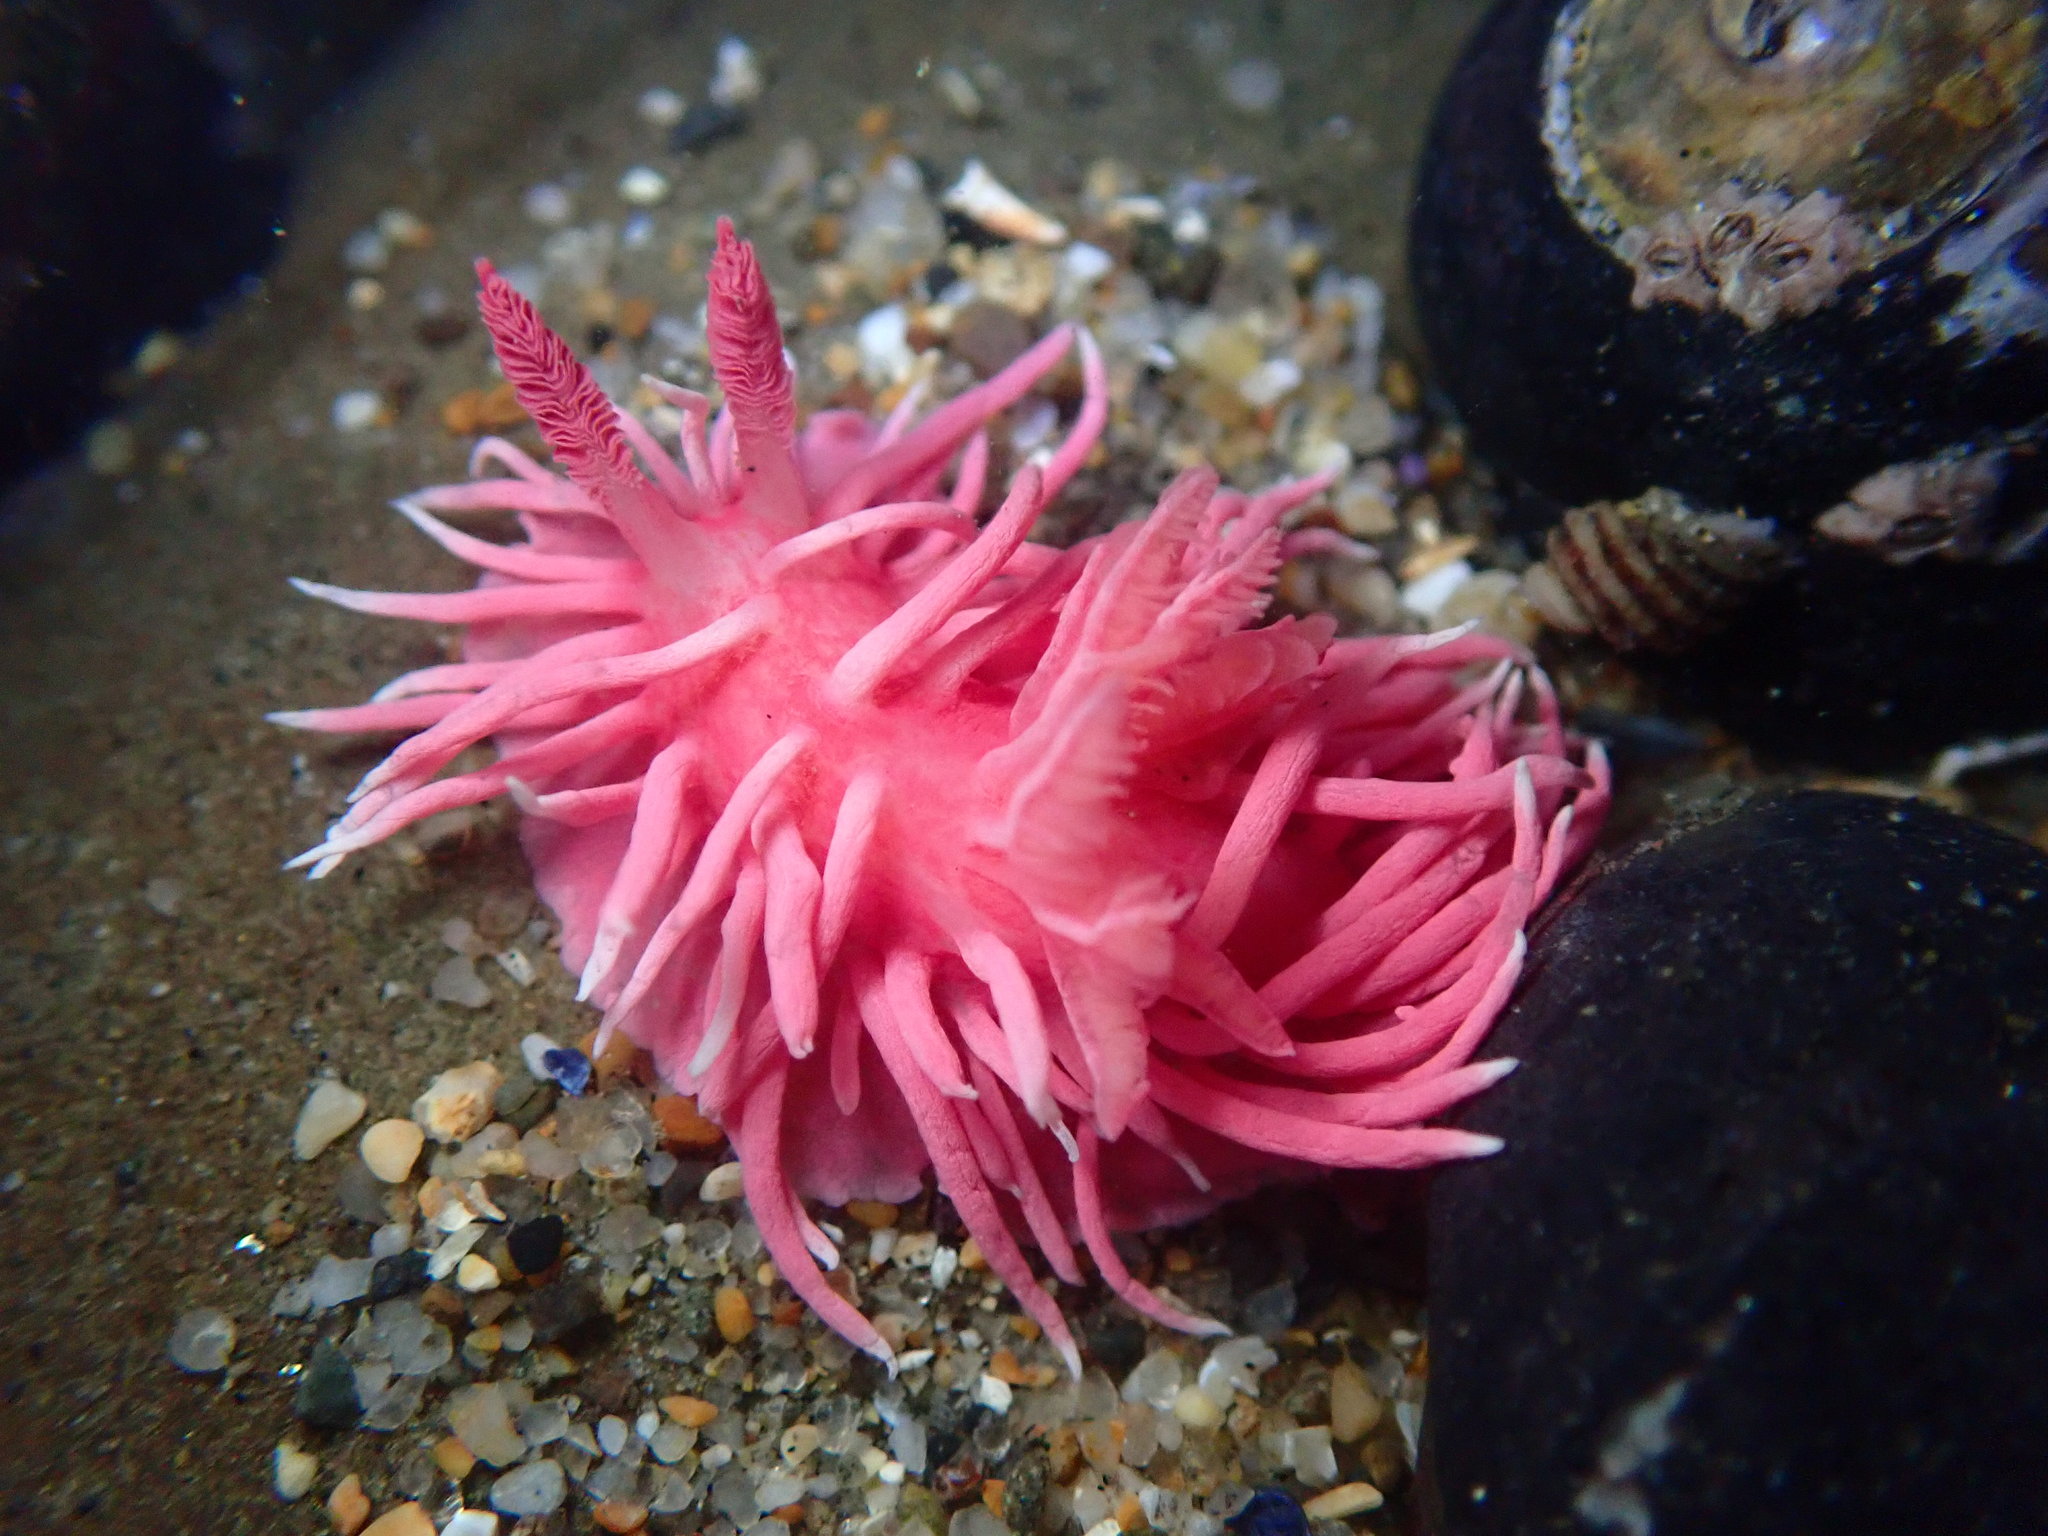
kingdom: Animalia
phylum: Mollusca
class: Gastropoda
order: Nudibranchia
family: Goniodorididae
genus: Okenia
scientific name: Okenia
